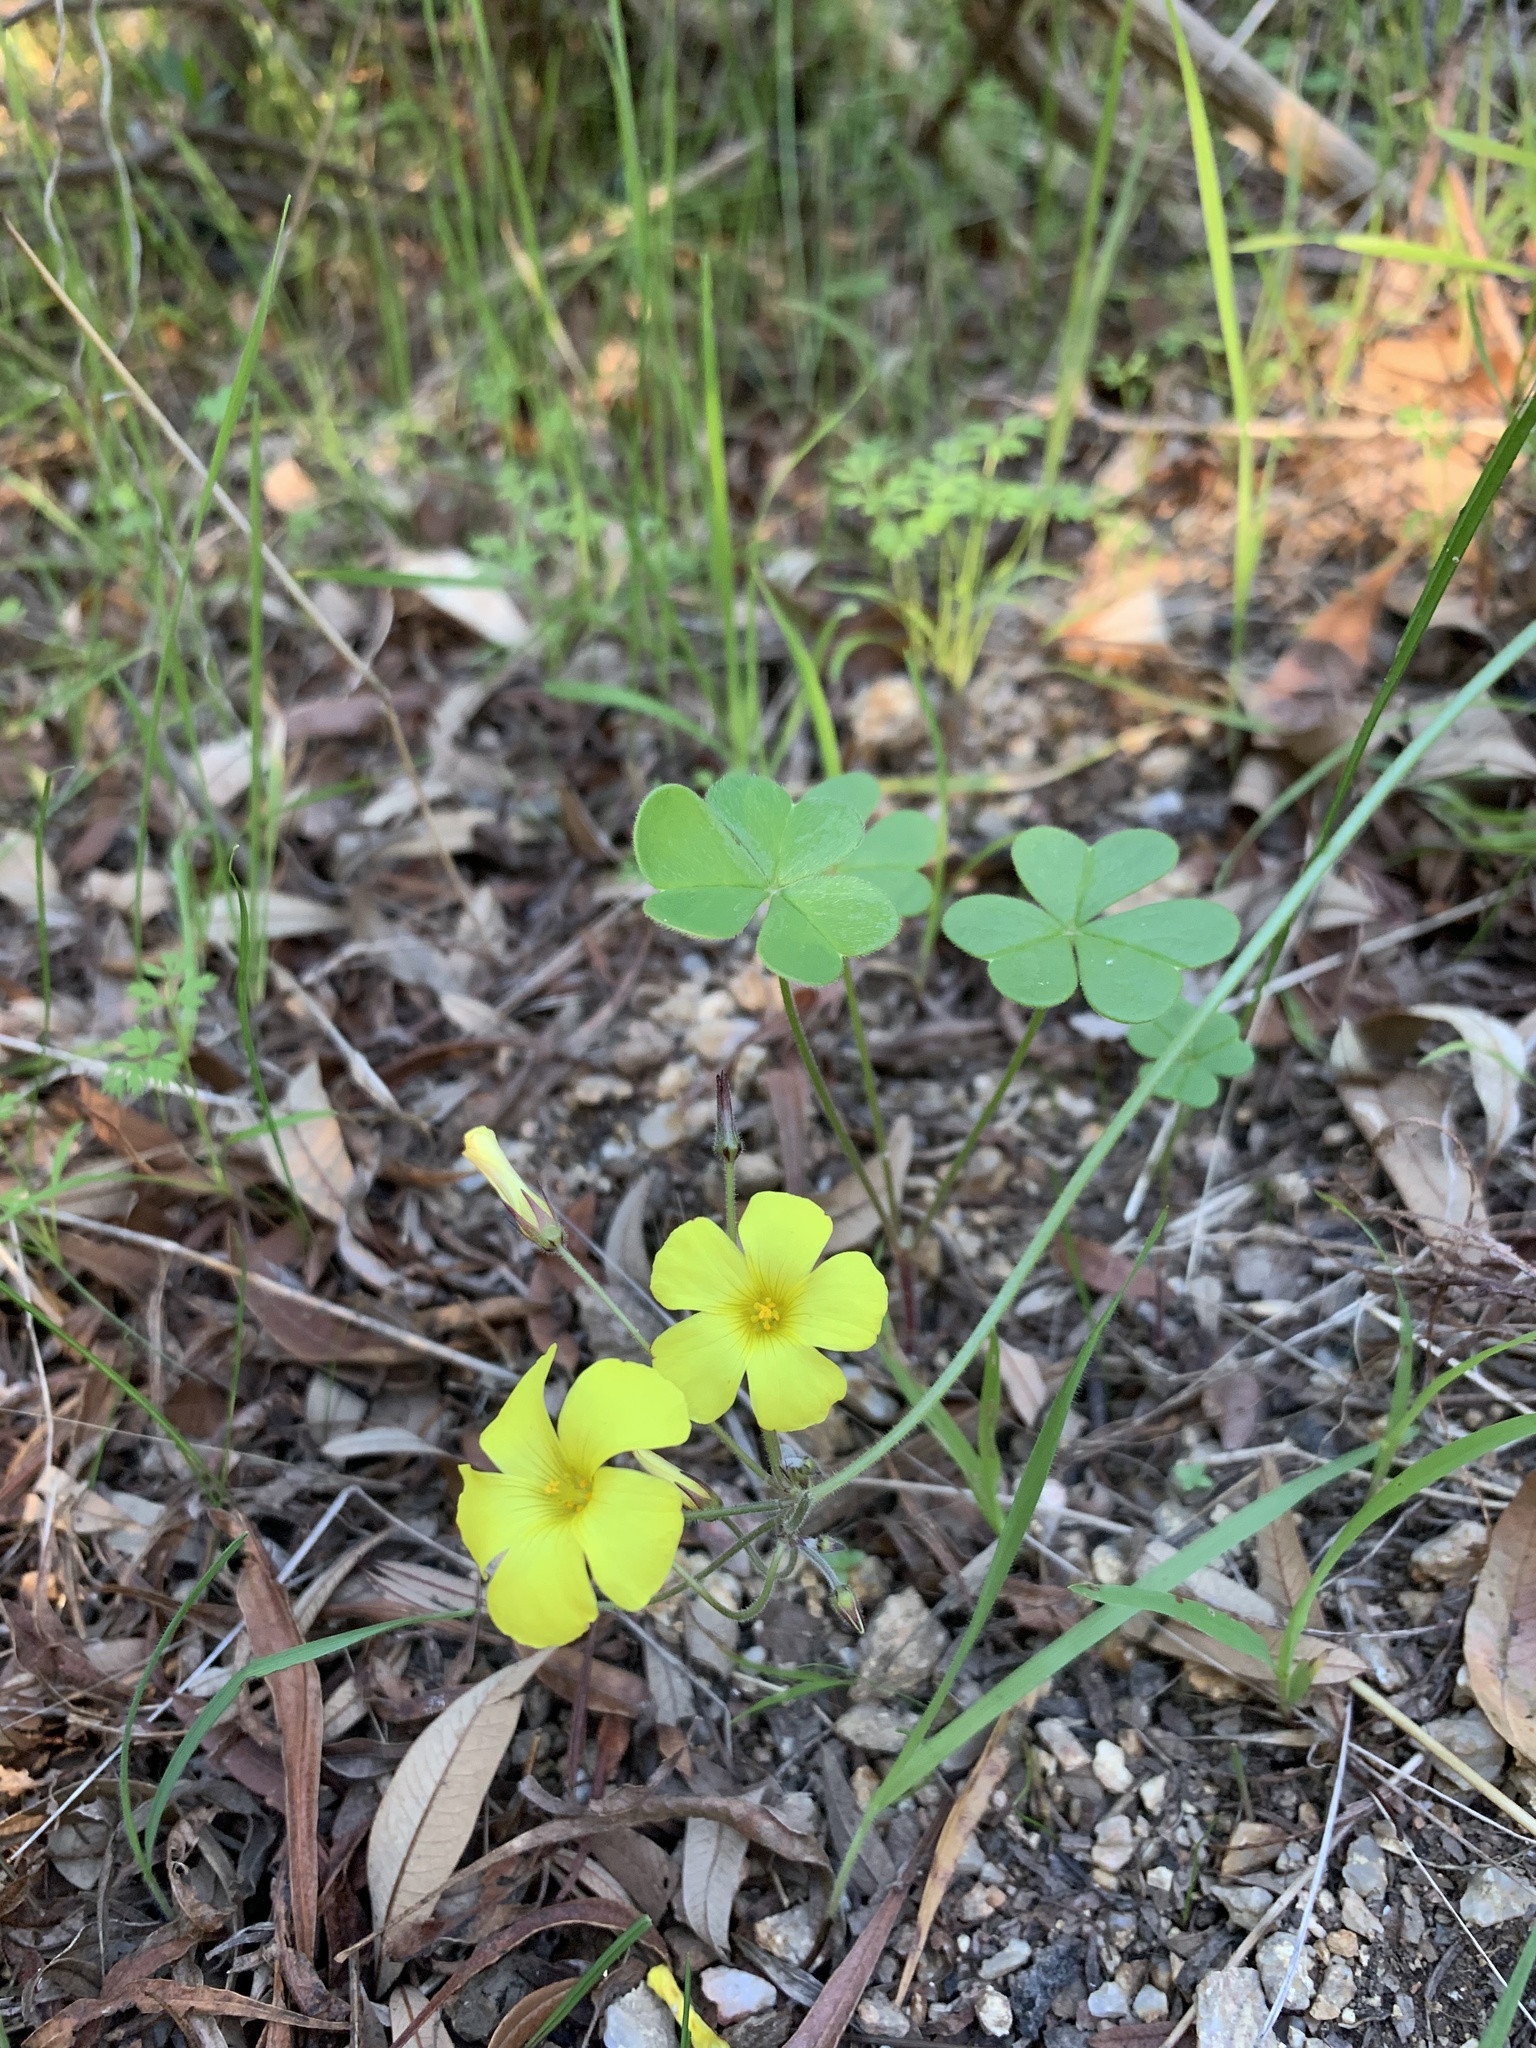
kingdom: Plantae
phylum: Tracheophyta
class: Magnoliopsida
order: Oxalidales
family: Oxalidaceae
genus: Oxalis
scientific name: Oxalis pes-caprae
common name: Bermuda-buttercup
